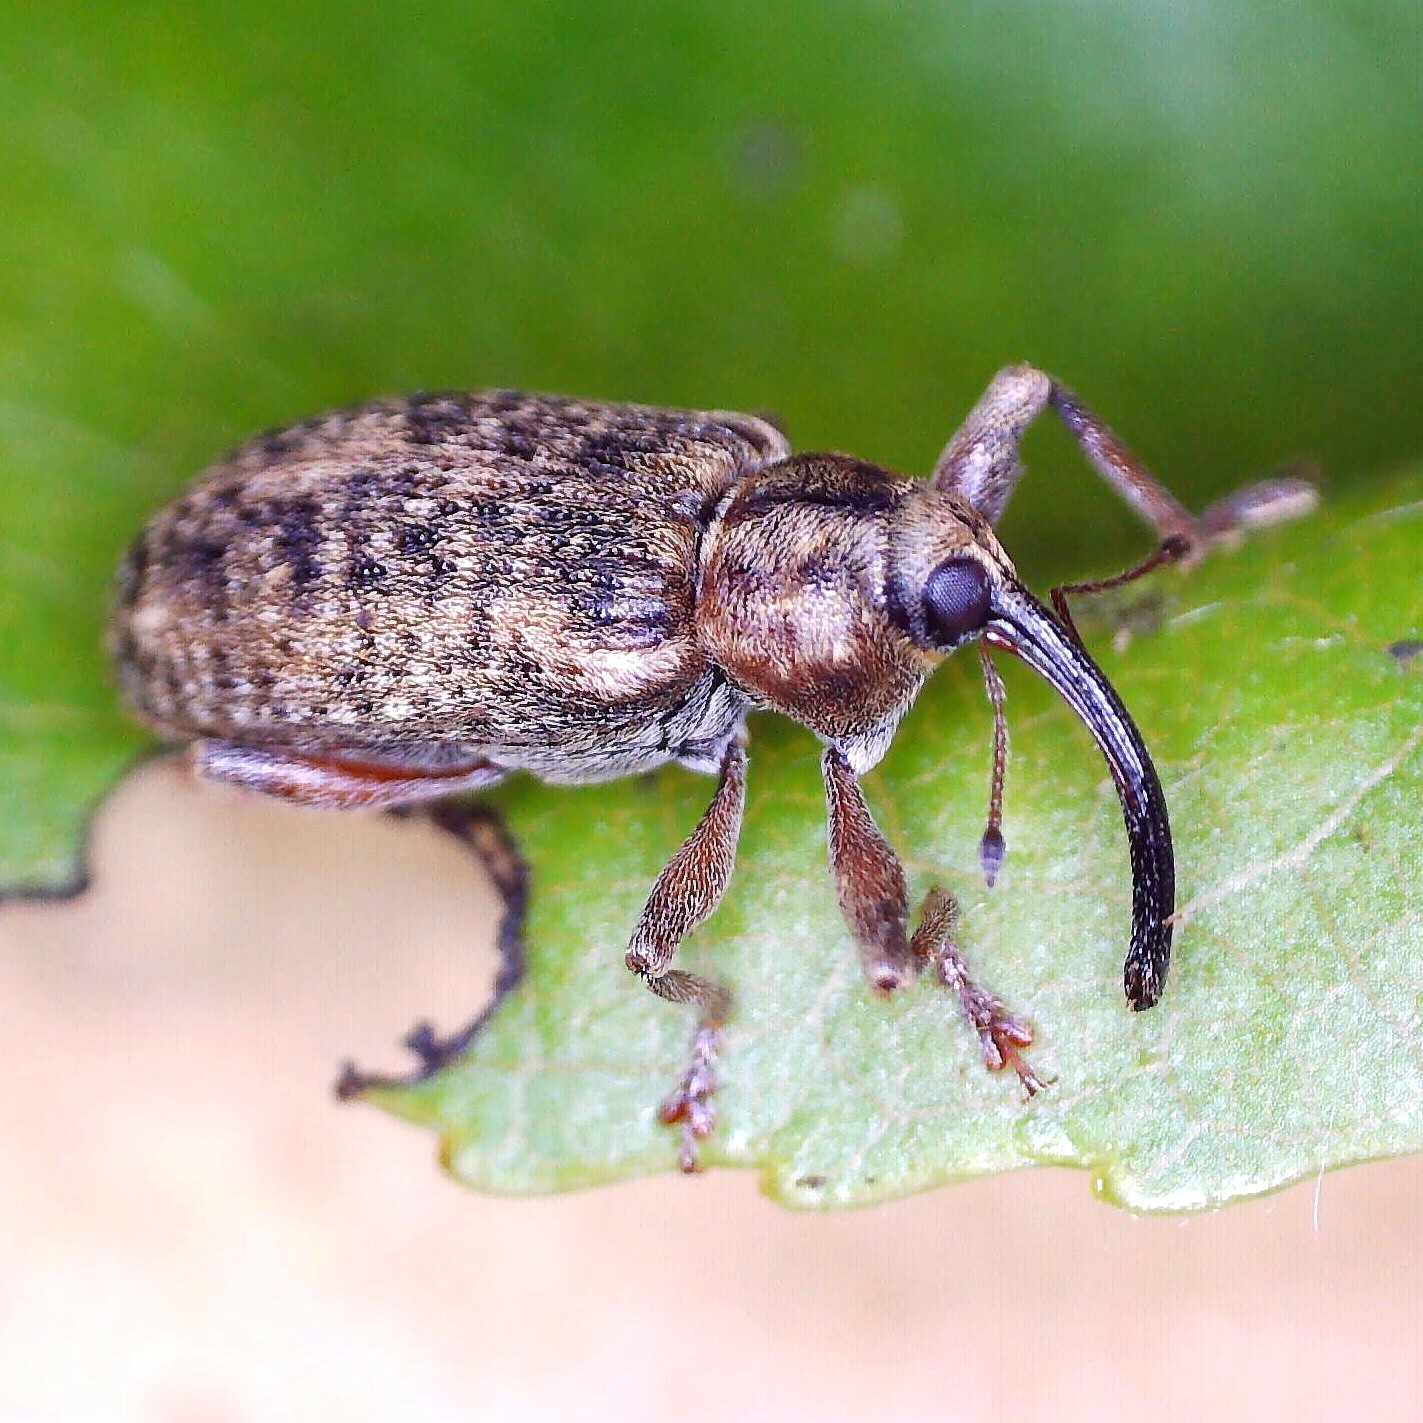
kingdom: Animalia
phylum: Arthropoda
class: Insecta
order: Coleoptera
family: Curculionidae
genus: Dorytomus
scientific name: Dorytomus longimanus
